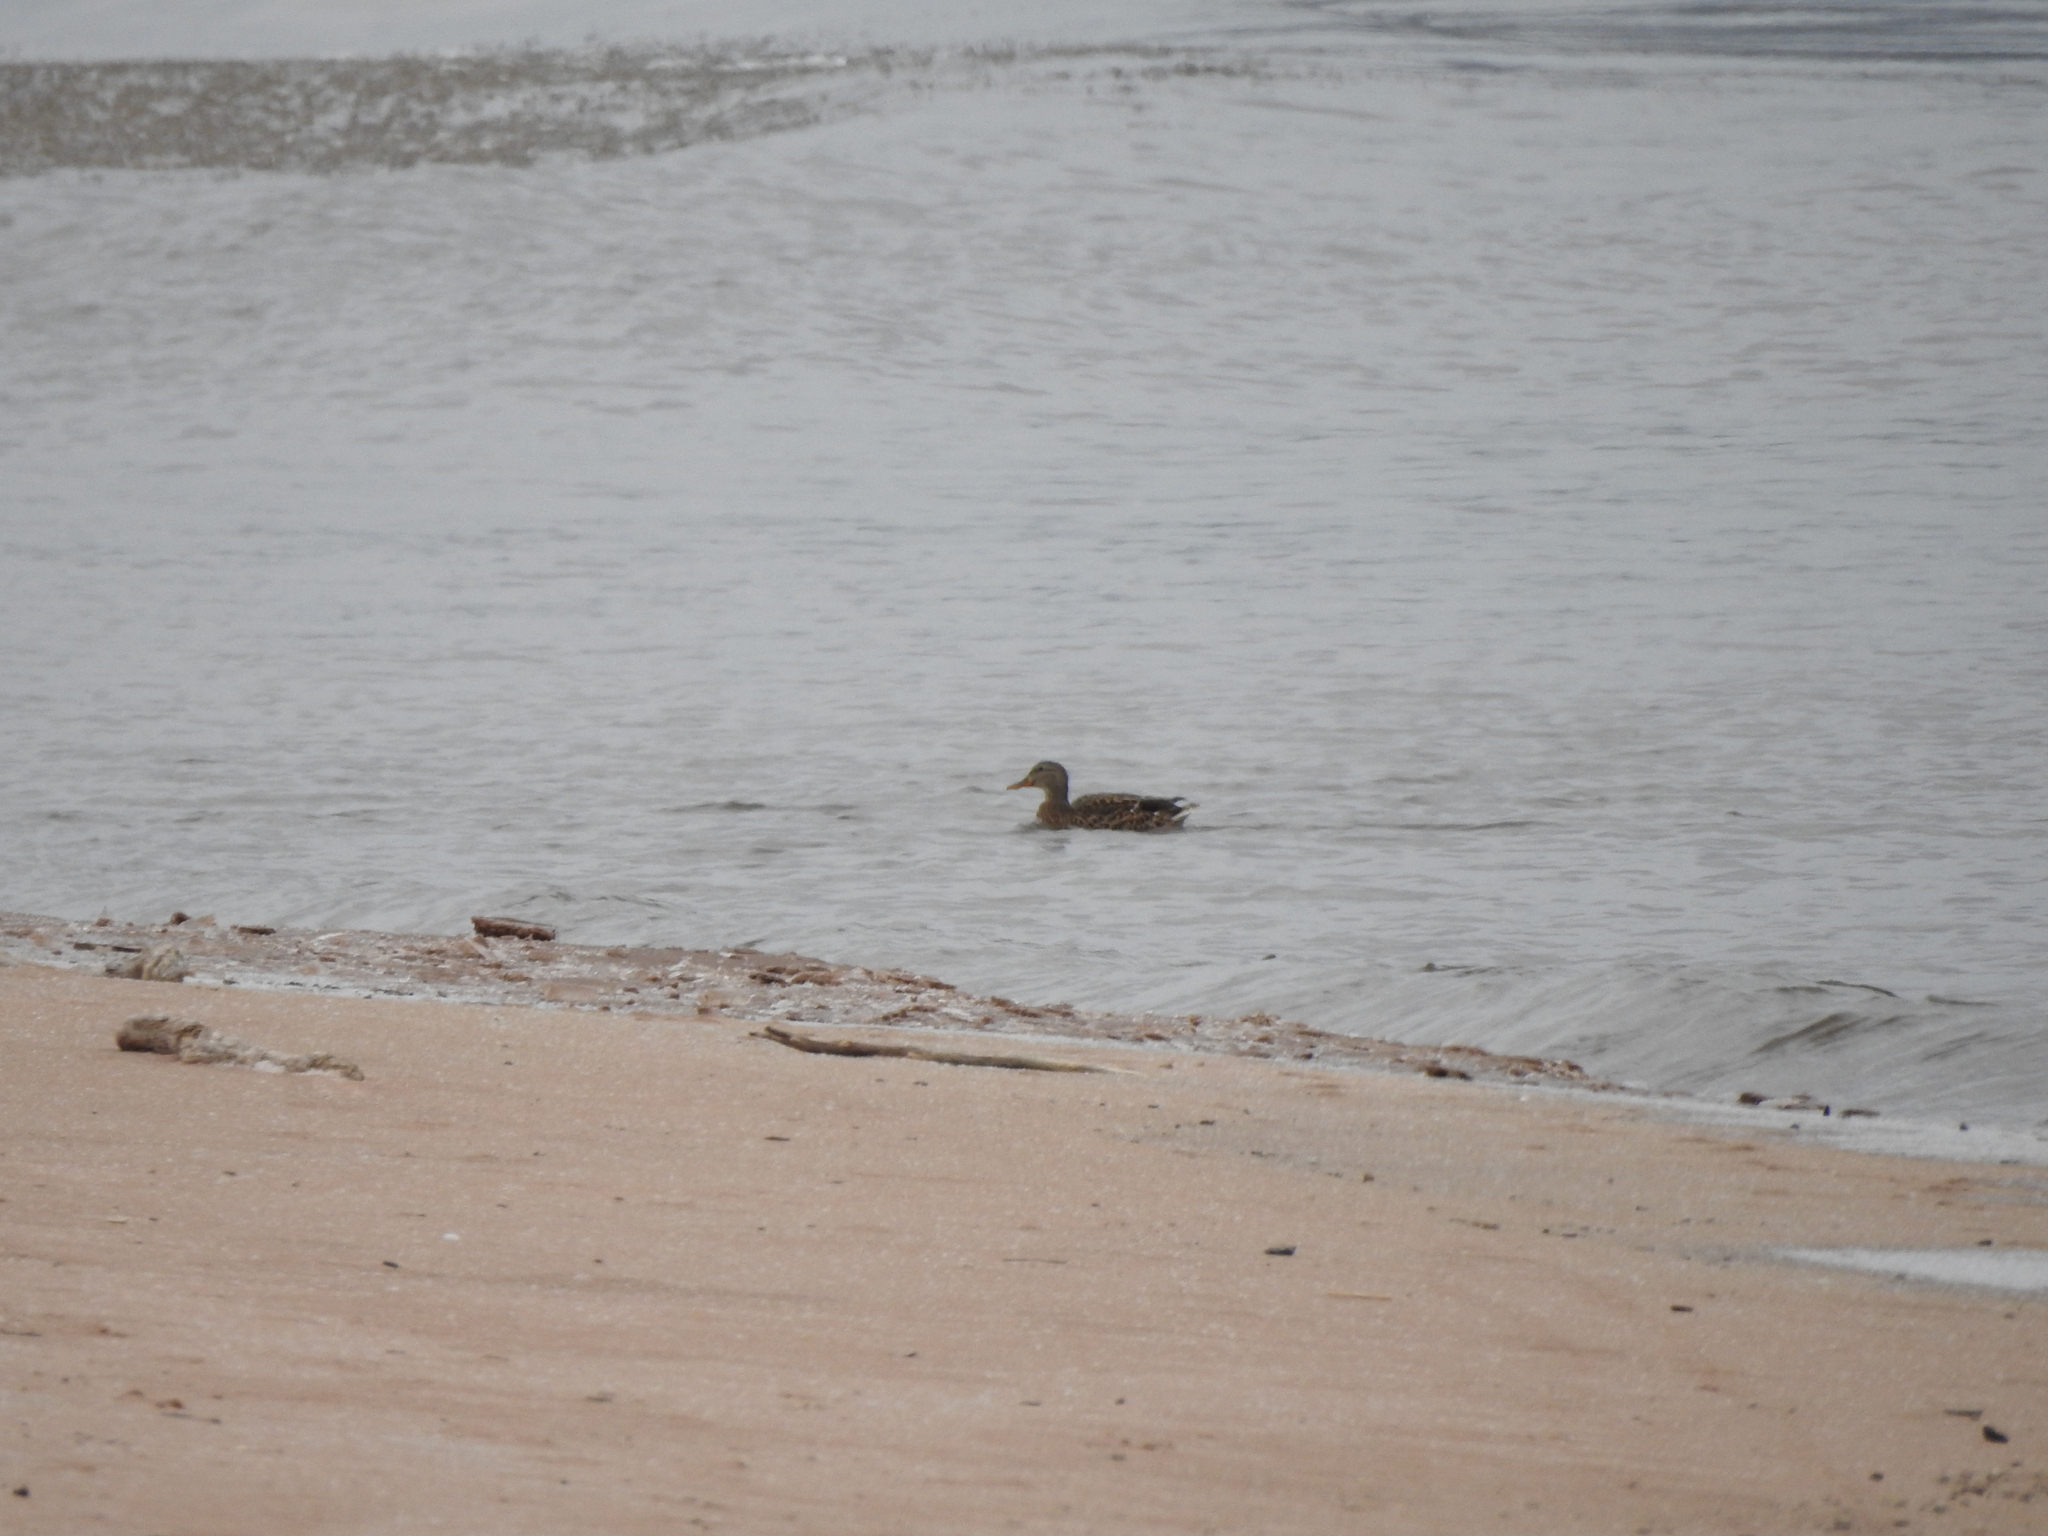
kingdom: Animalia
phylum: Chordata
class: Aves
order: Anseriformes
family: Anatidae
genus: Anas
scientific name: Anas platyrhynchos
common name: Mallard
